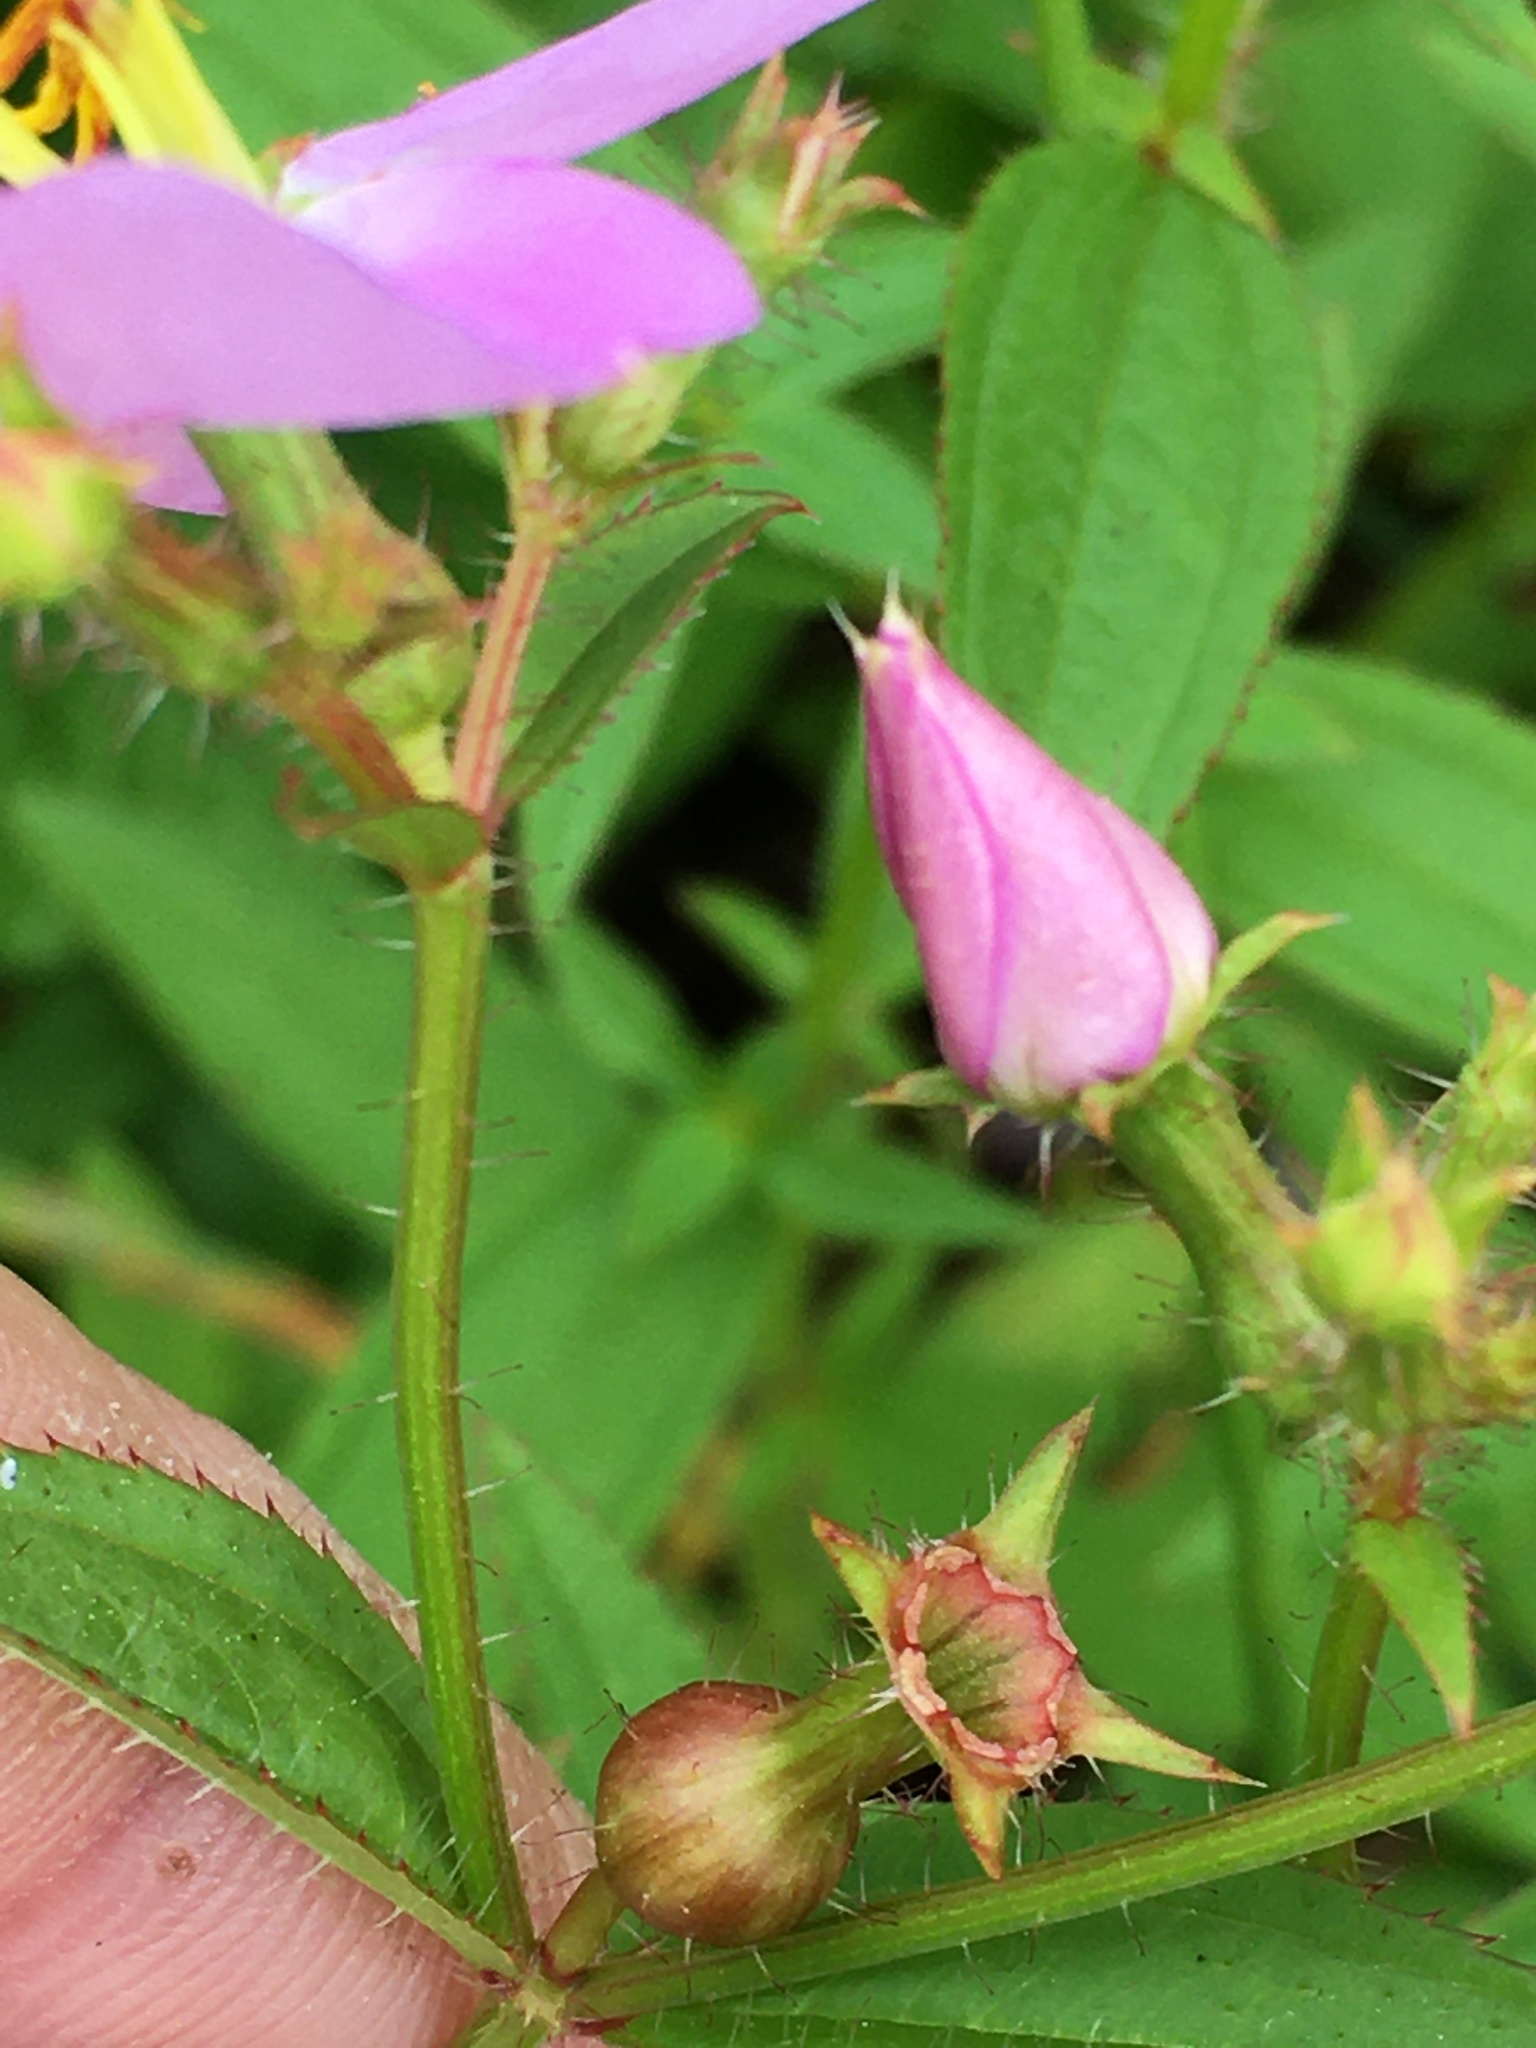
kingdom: Plantae
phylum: Tracheophyta
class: Magnoliopsida
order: Myrtales
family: Melastomataceae
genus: Rhexia
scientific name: Rhexia mariana
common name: Dull meadow-pitcher
